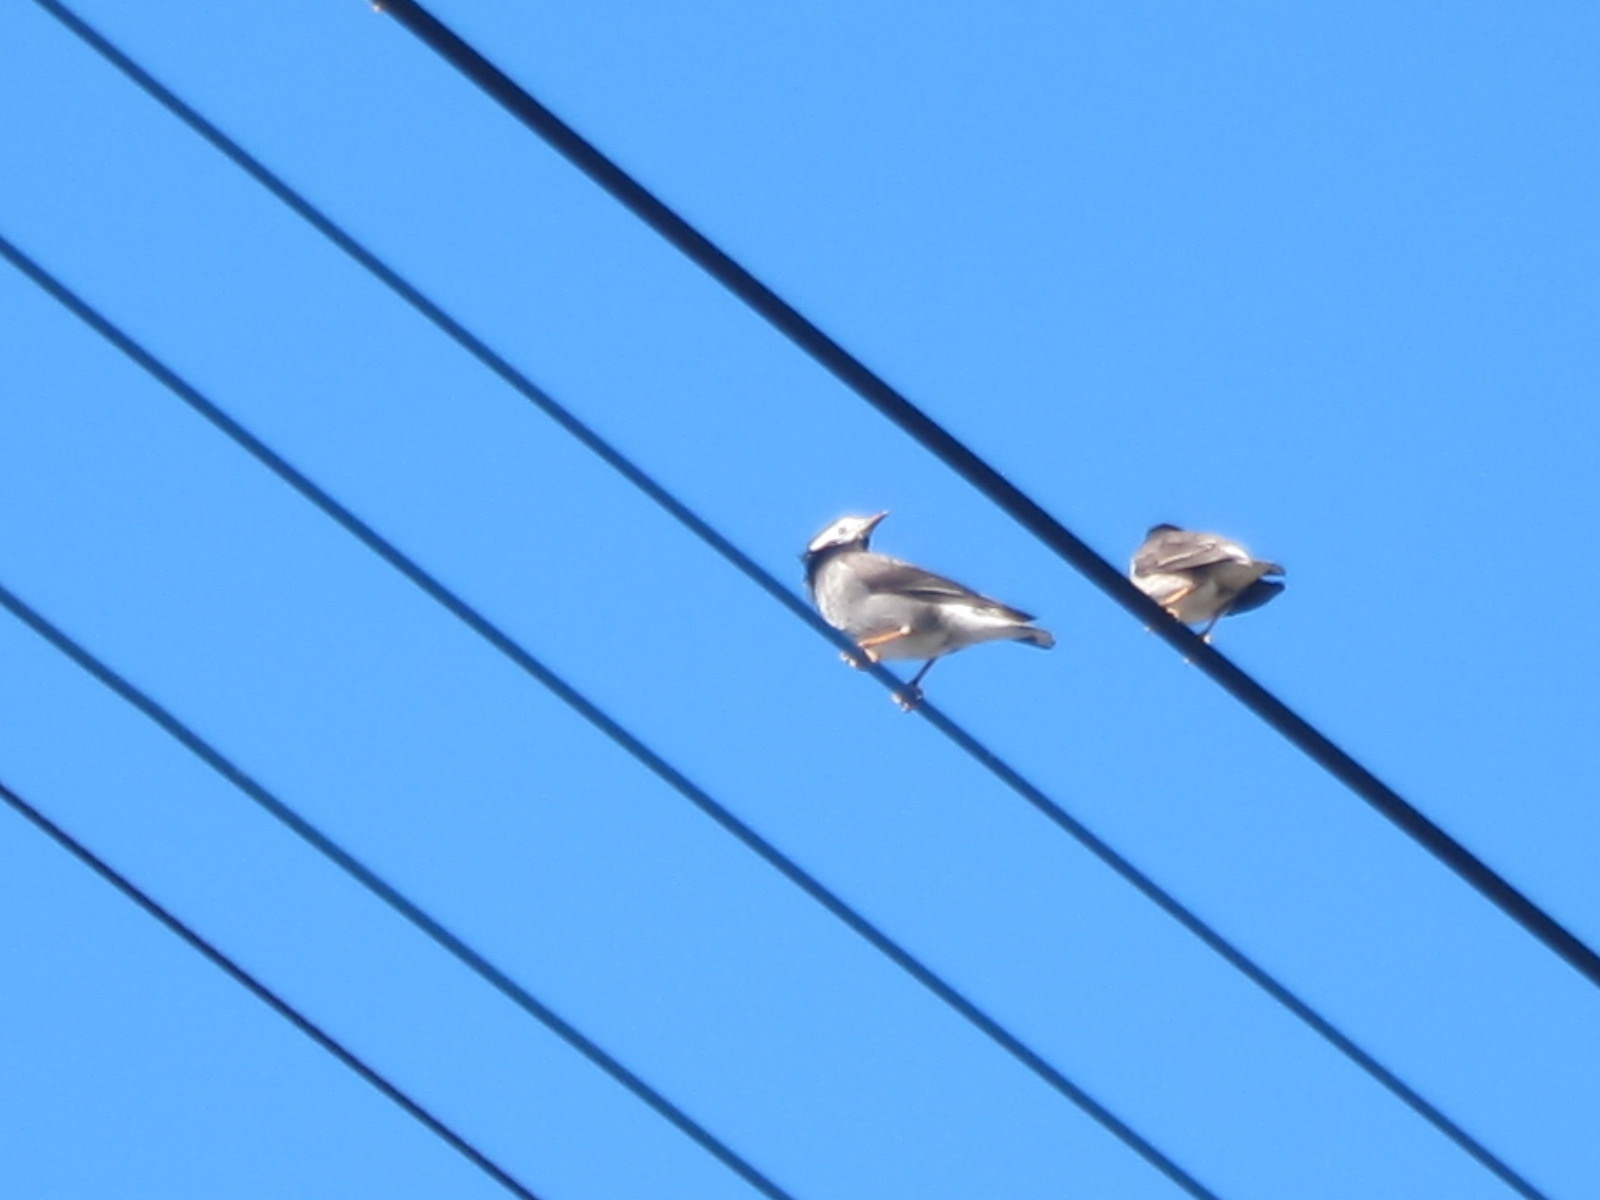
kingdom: Animalia
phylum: Chordata
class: Aves
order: Passeriformes
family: Sturnidae
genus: Spodiopsar
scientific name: Spodiopsar cineraceus
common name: White-cheeked starling
